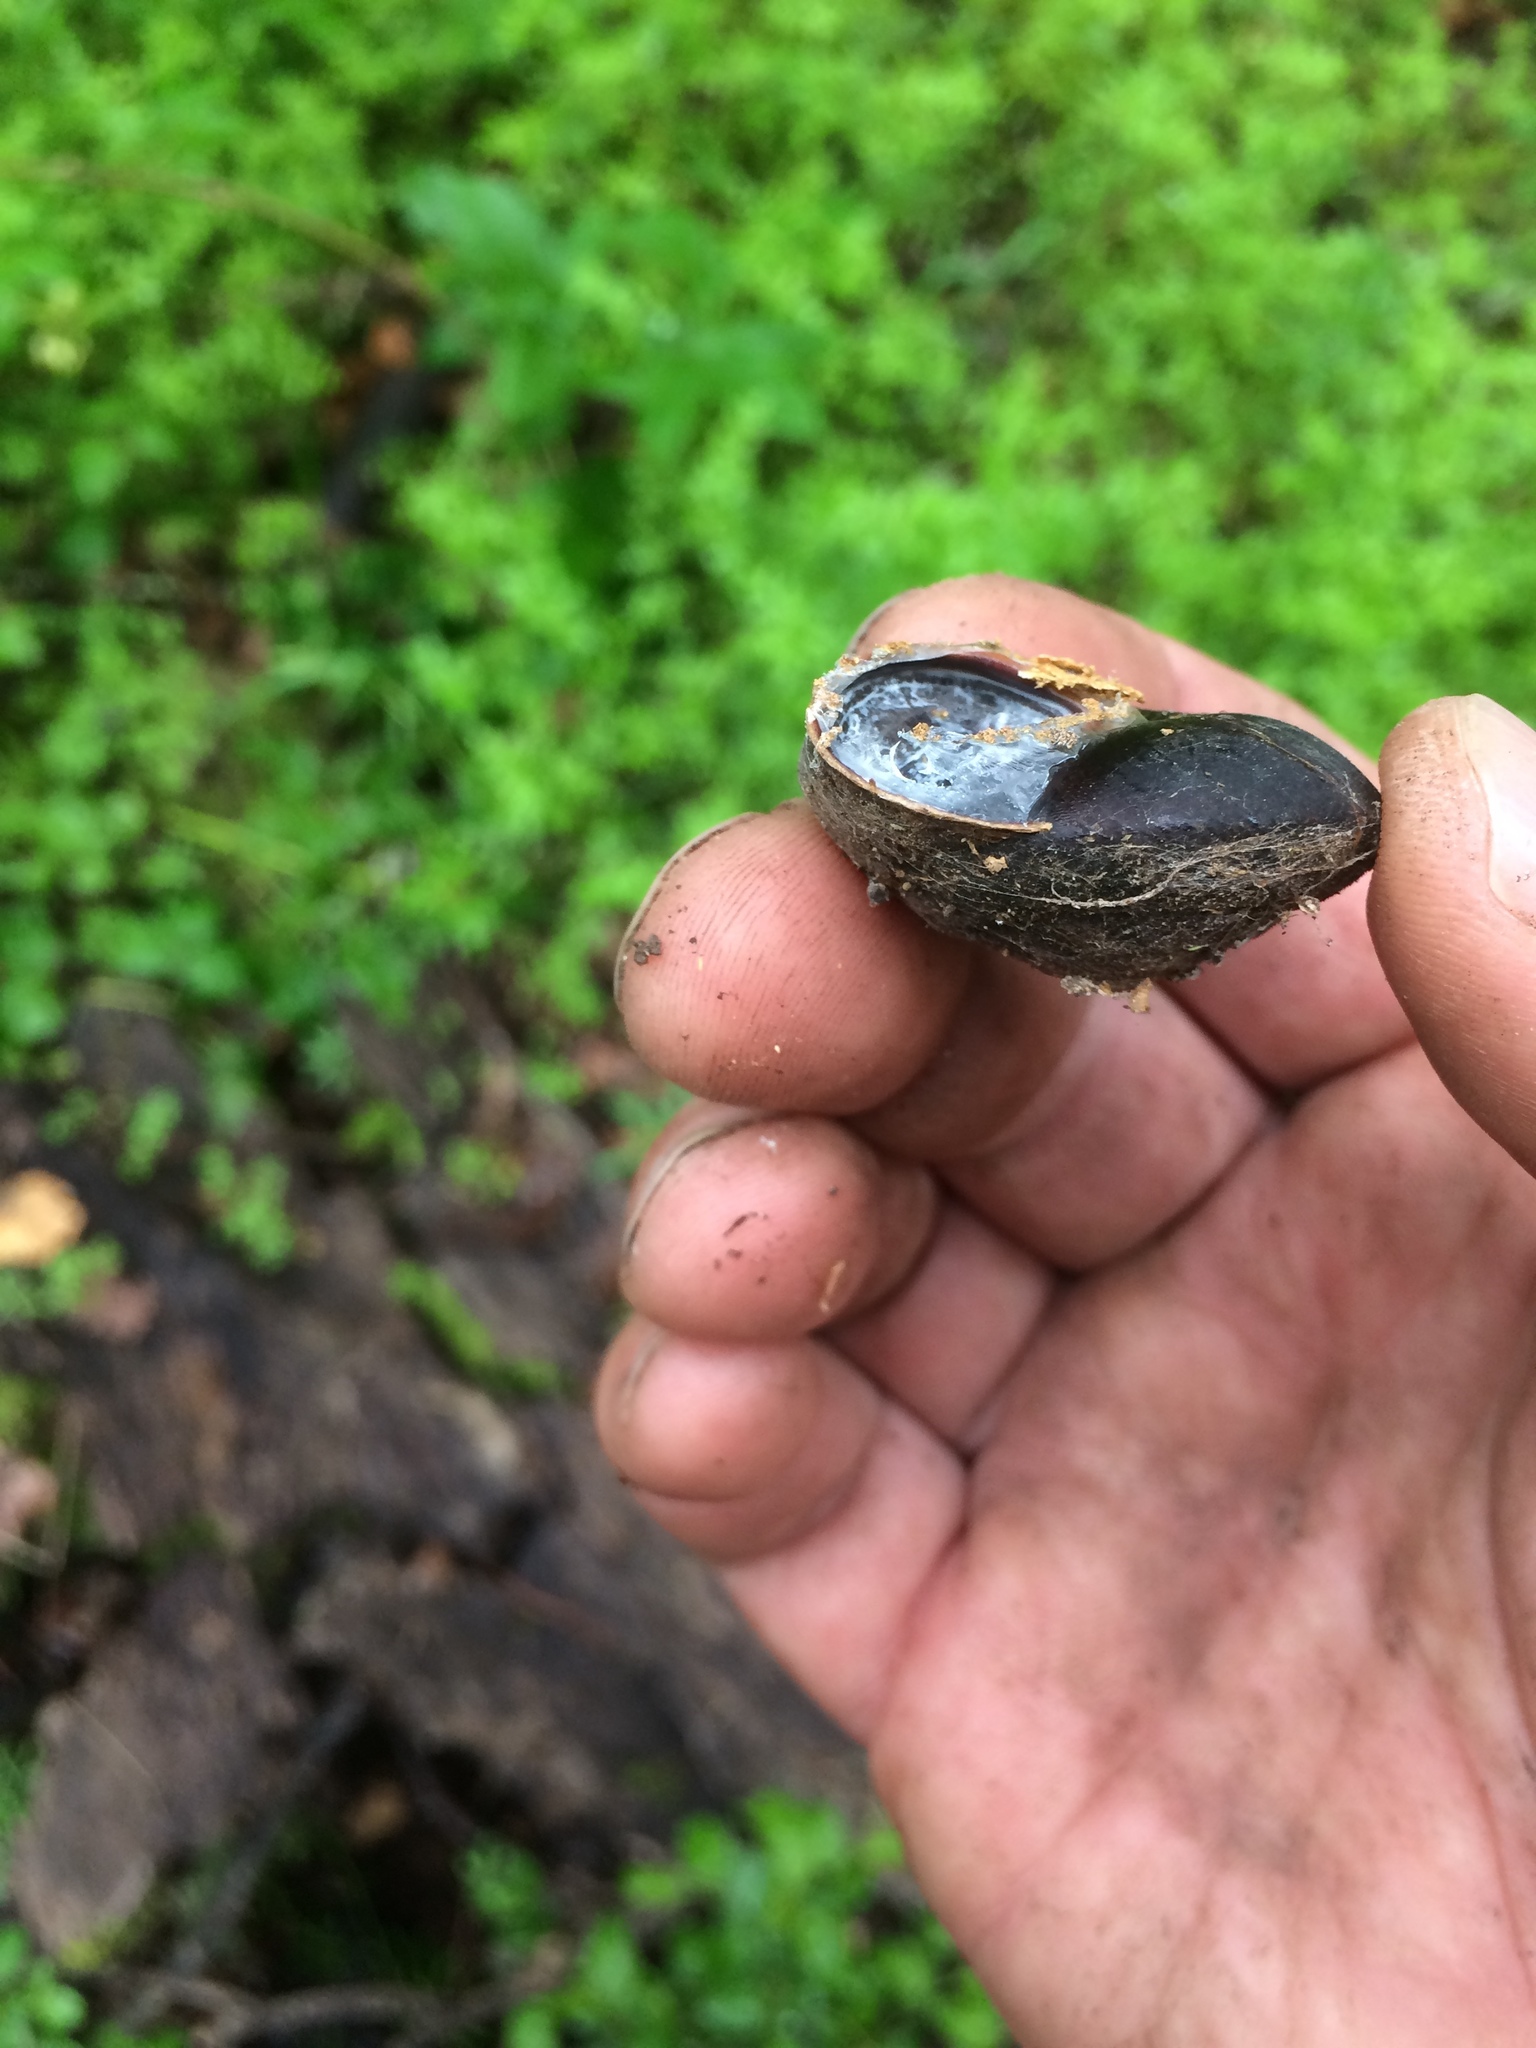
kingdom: Animalia
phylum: Mollusca
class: Gastropoda
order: Stylommatophora
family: Xanthonychidae
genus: Monadenia
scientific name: Monadenia infumata
